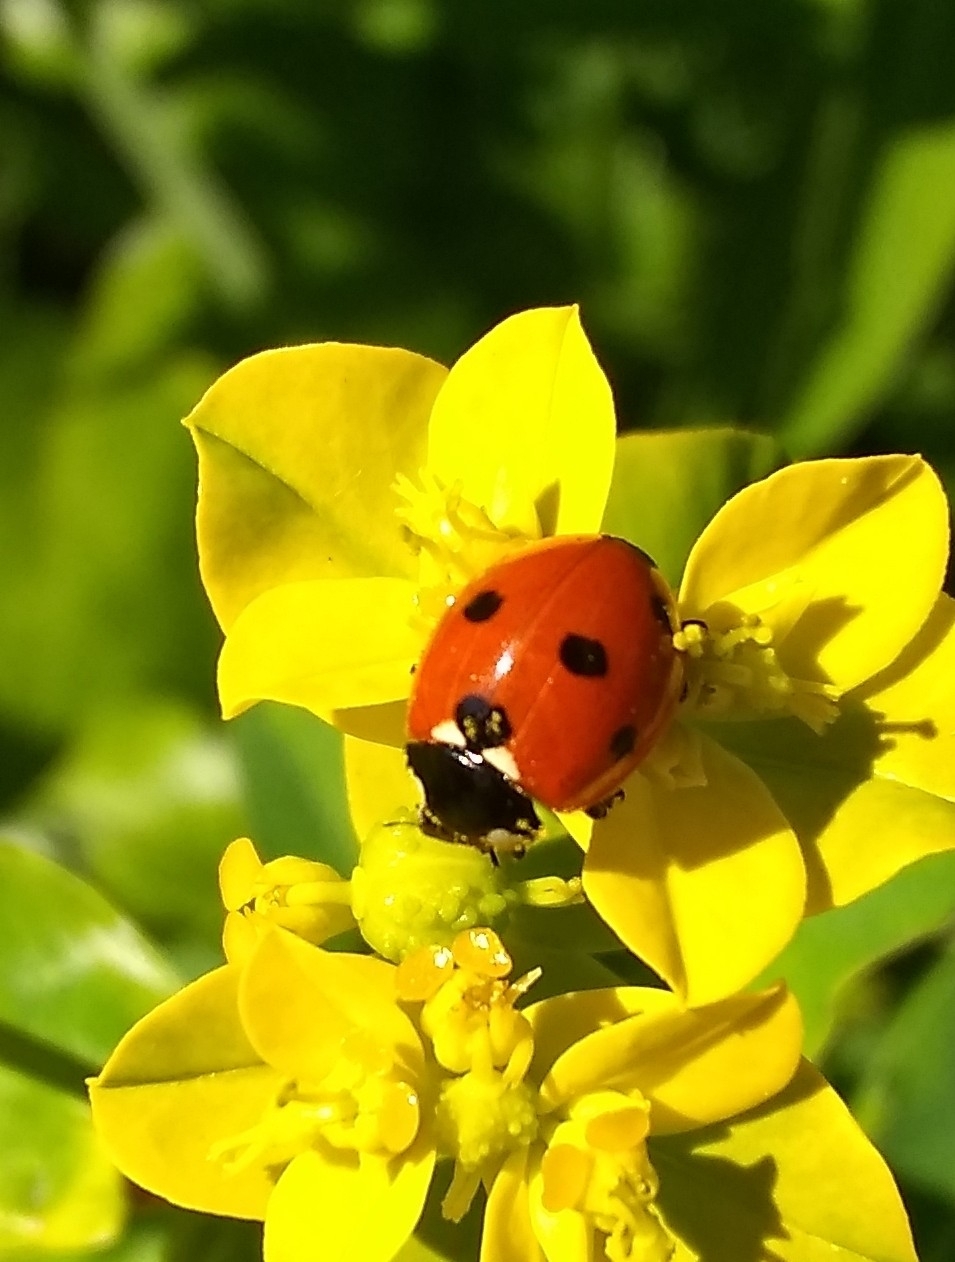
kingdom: Animalia
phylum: Arthropoda
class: Insecta
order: Coleoptera
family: Coccinellidae
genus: Coccinella
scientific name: Coccinella septempunctata
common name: Sevenspotted lady beetle
